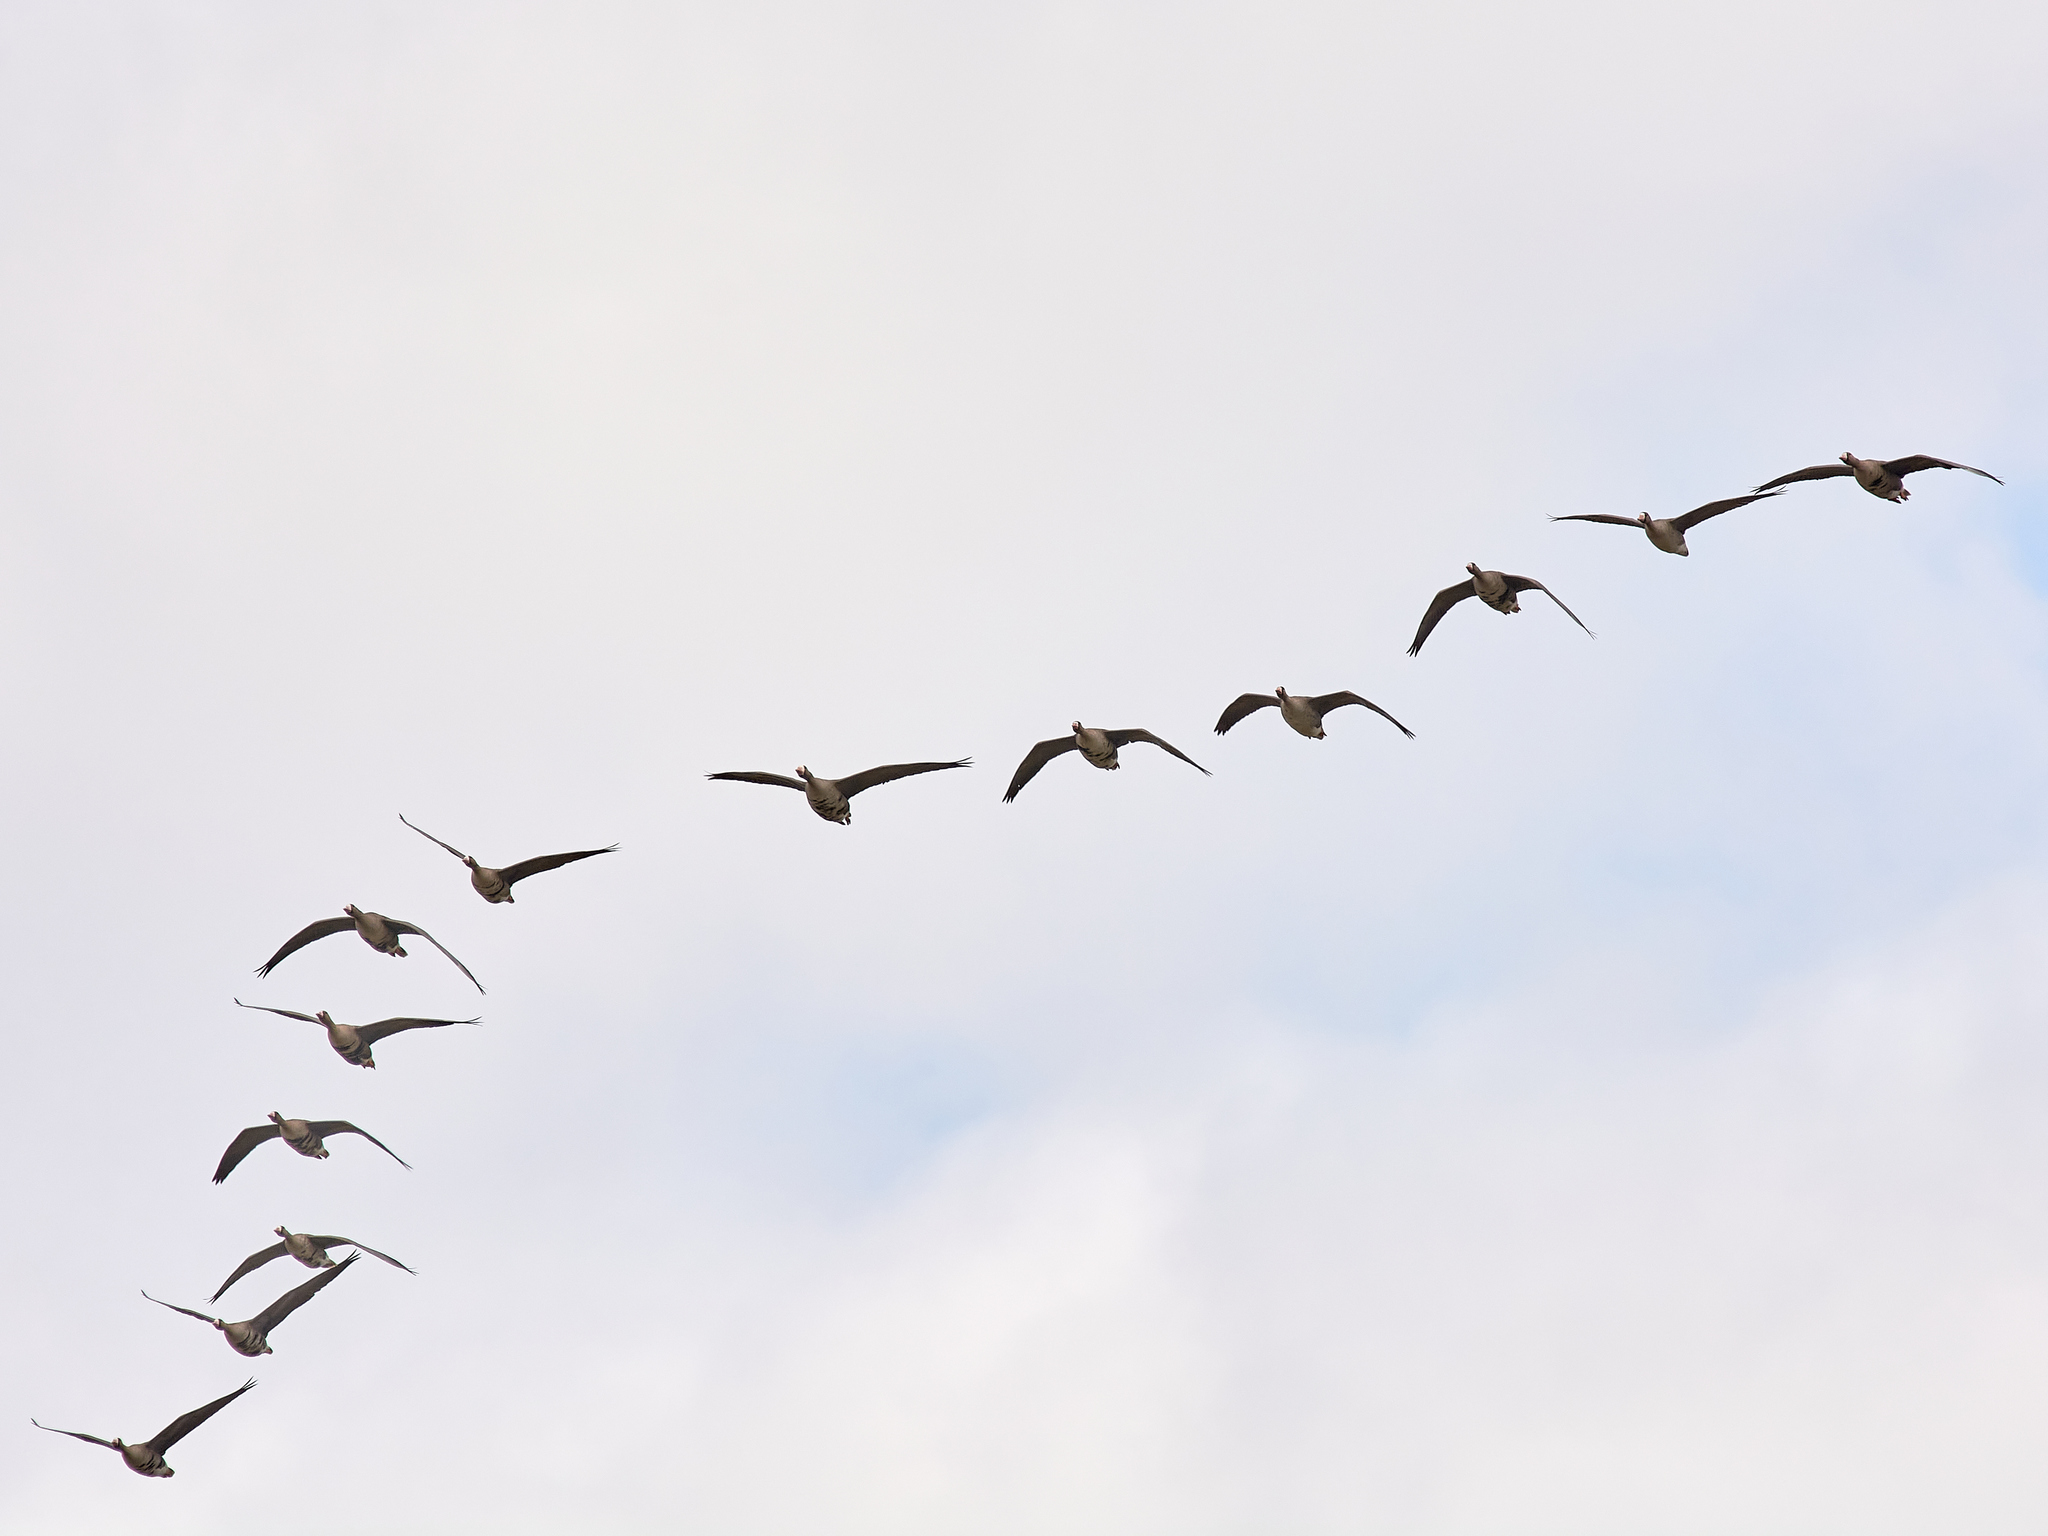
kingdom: Animalia
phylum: Chordata
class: Aves
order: Anseriformes
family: Anatidae
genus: Anser
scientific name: Anser albifrons
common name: Greater white-fronted goose
